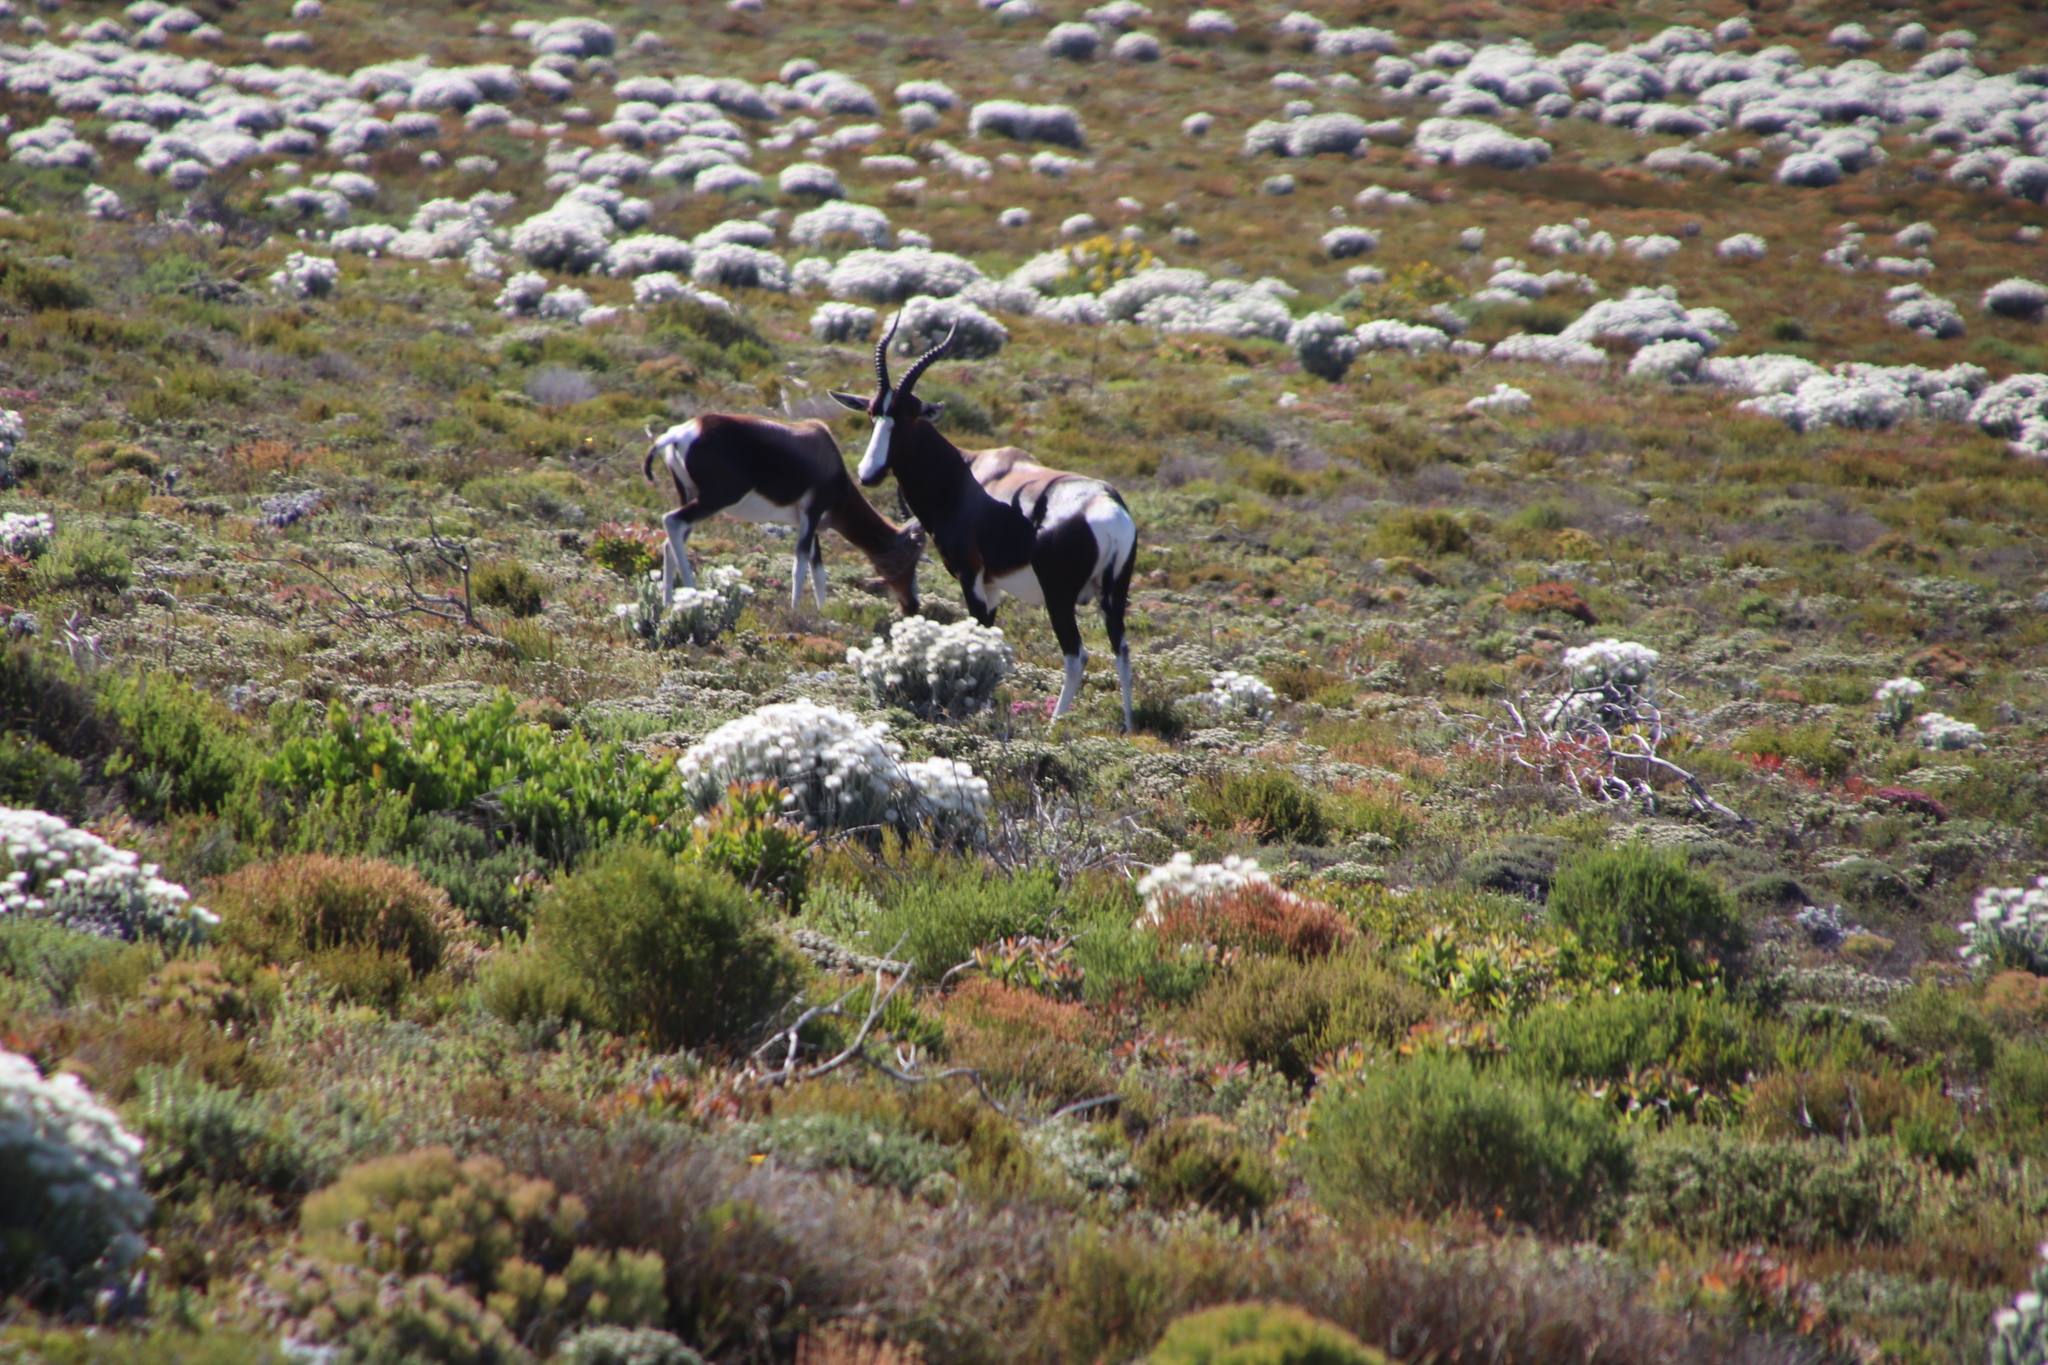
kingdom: Animalia
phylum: Chordata
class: Mammalia
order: Artiodactyla
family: Bovidae
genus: Damaliscus
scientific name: Damaliscus pygargus
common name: Bontebok
